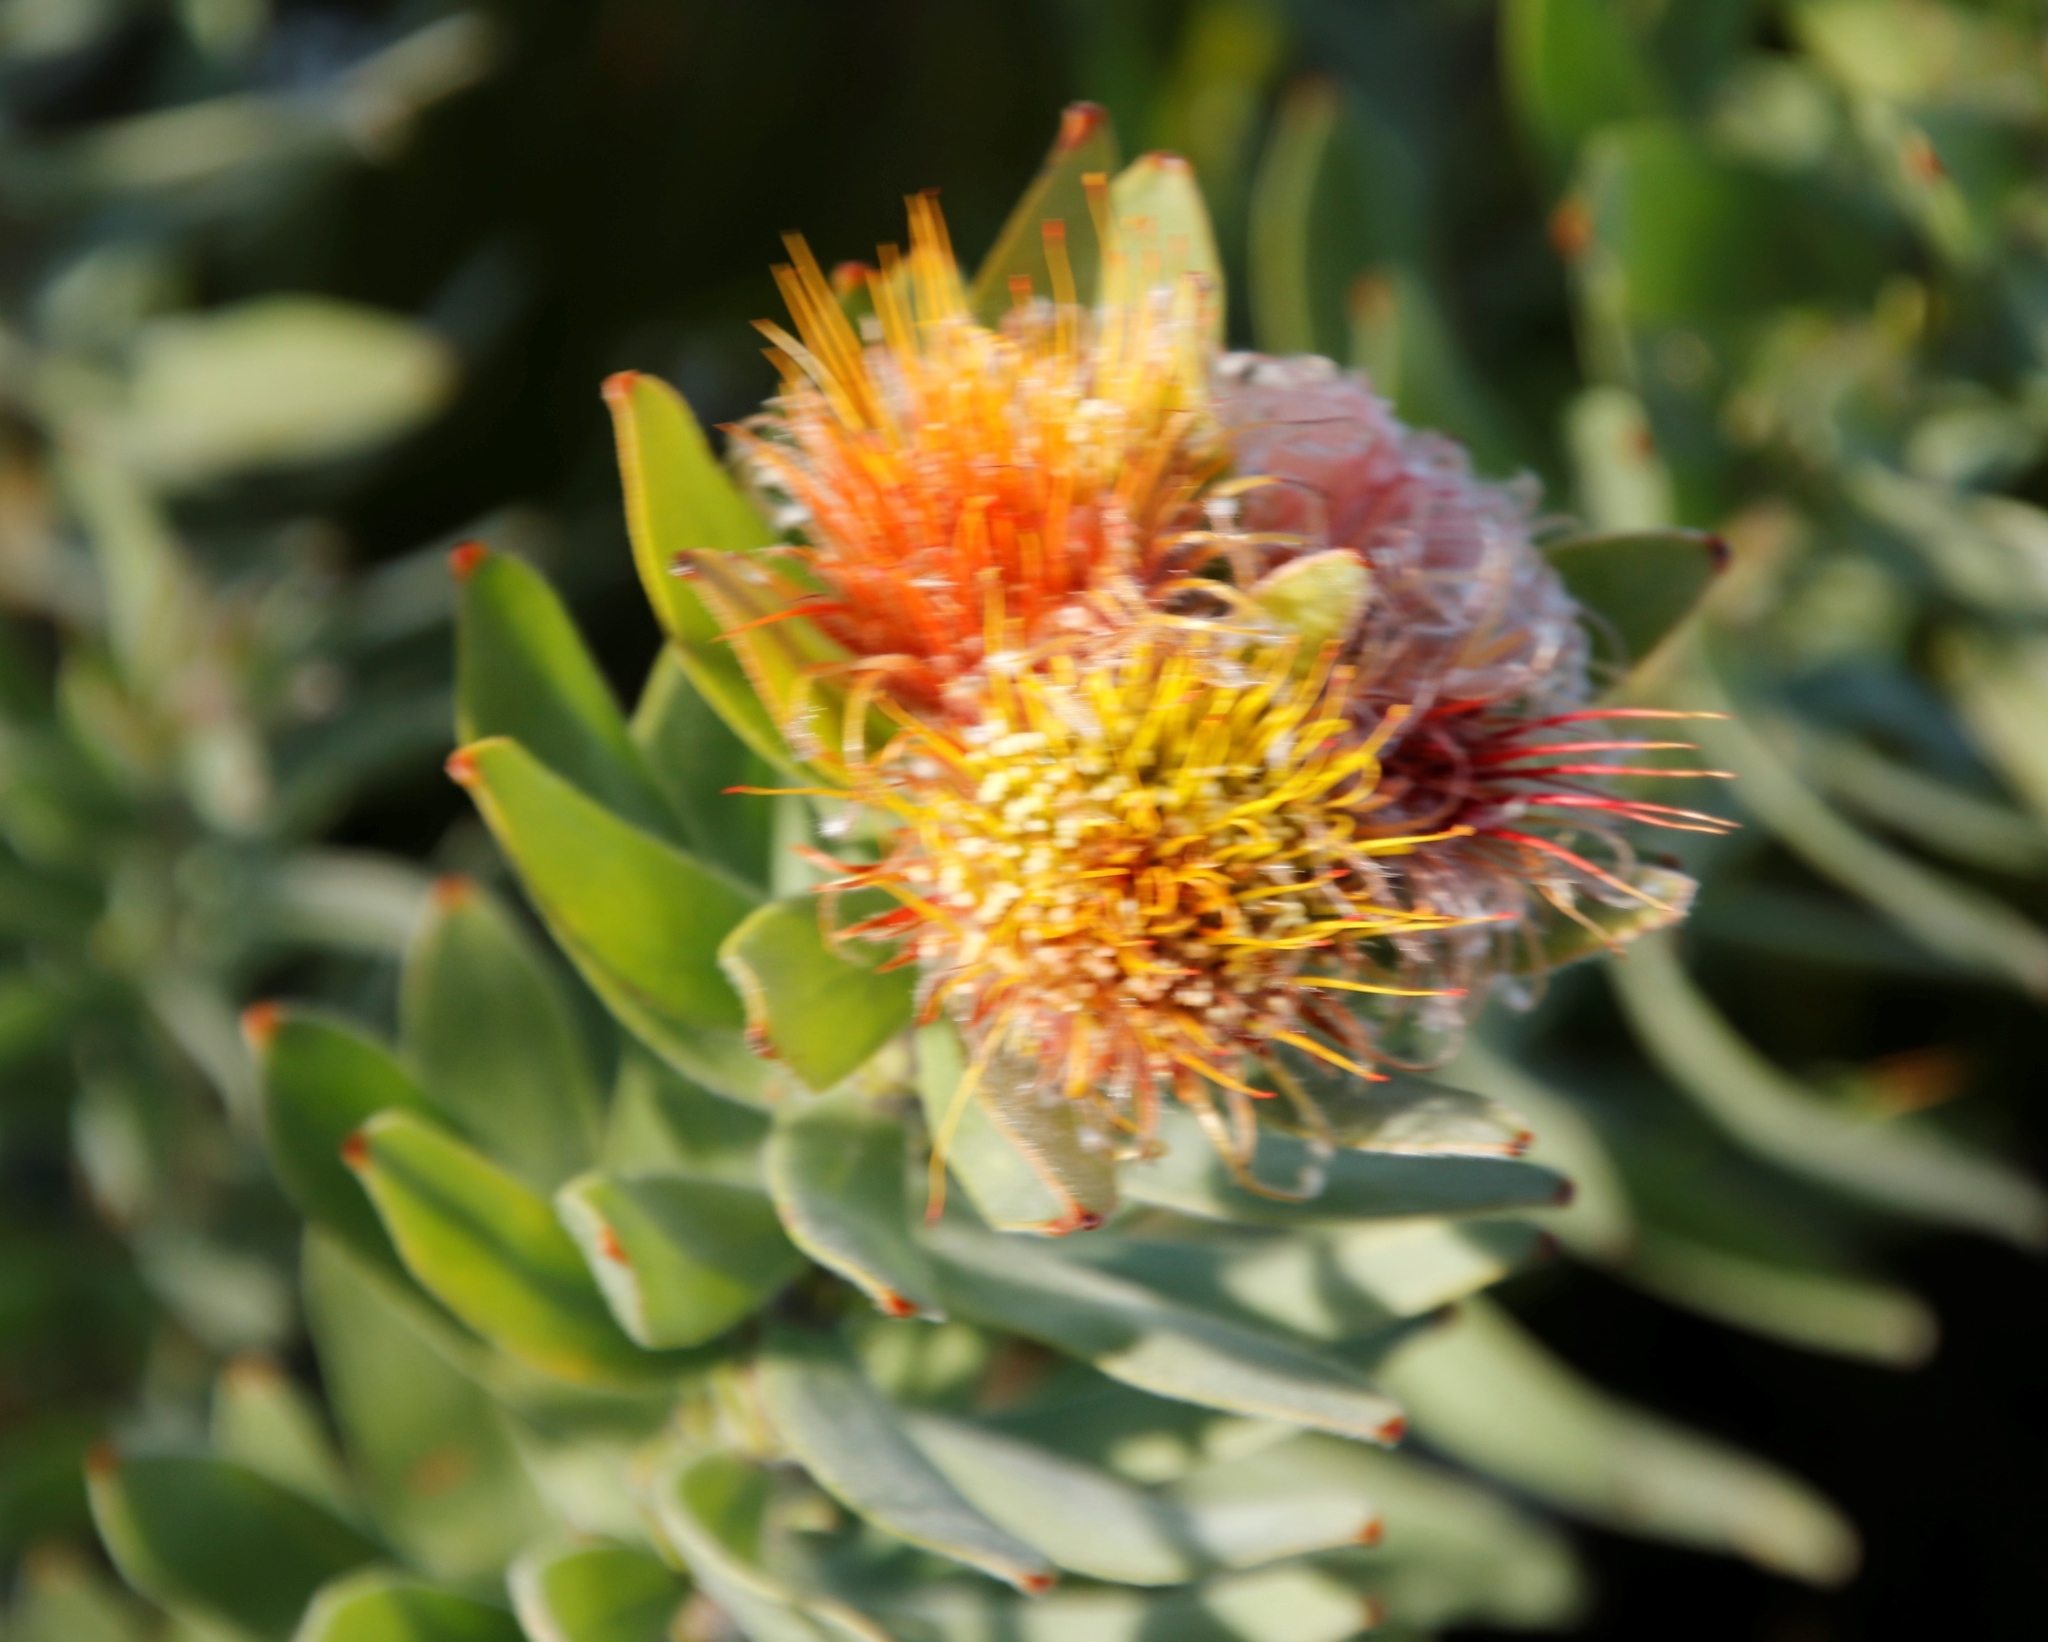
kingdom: Plantae
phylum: Tracheophyta
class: Magnoliopsida
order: Proteales
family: Proteaceae
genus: Leucospermum
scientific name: Leucospermum oleifolium
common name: Matches
